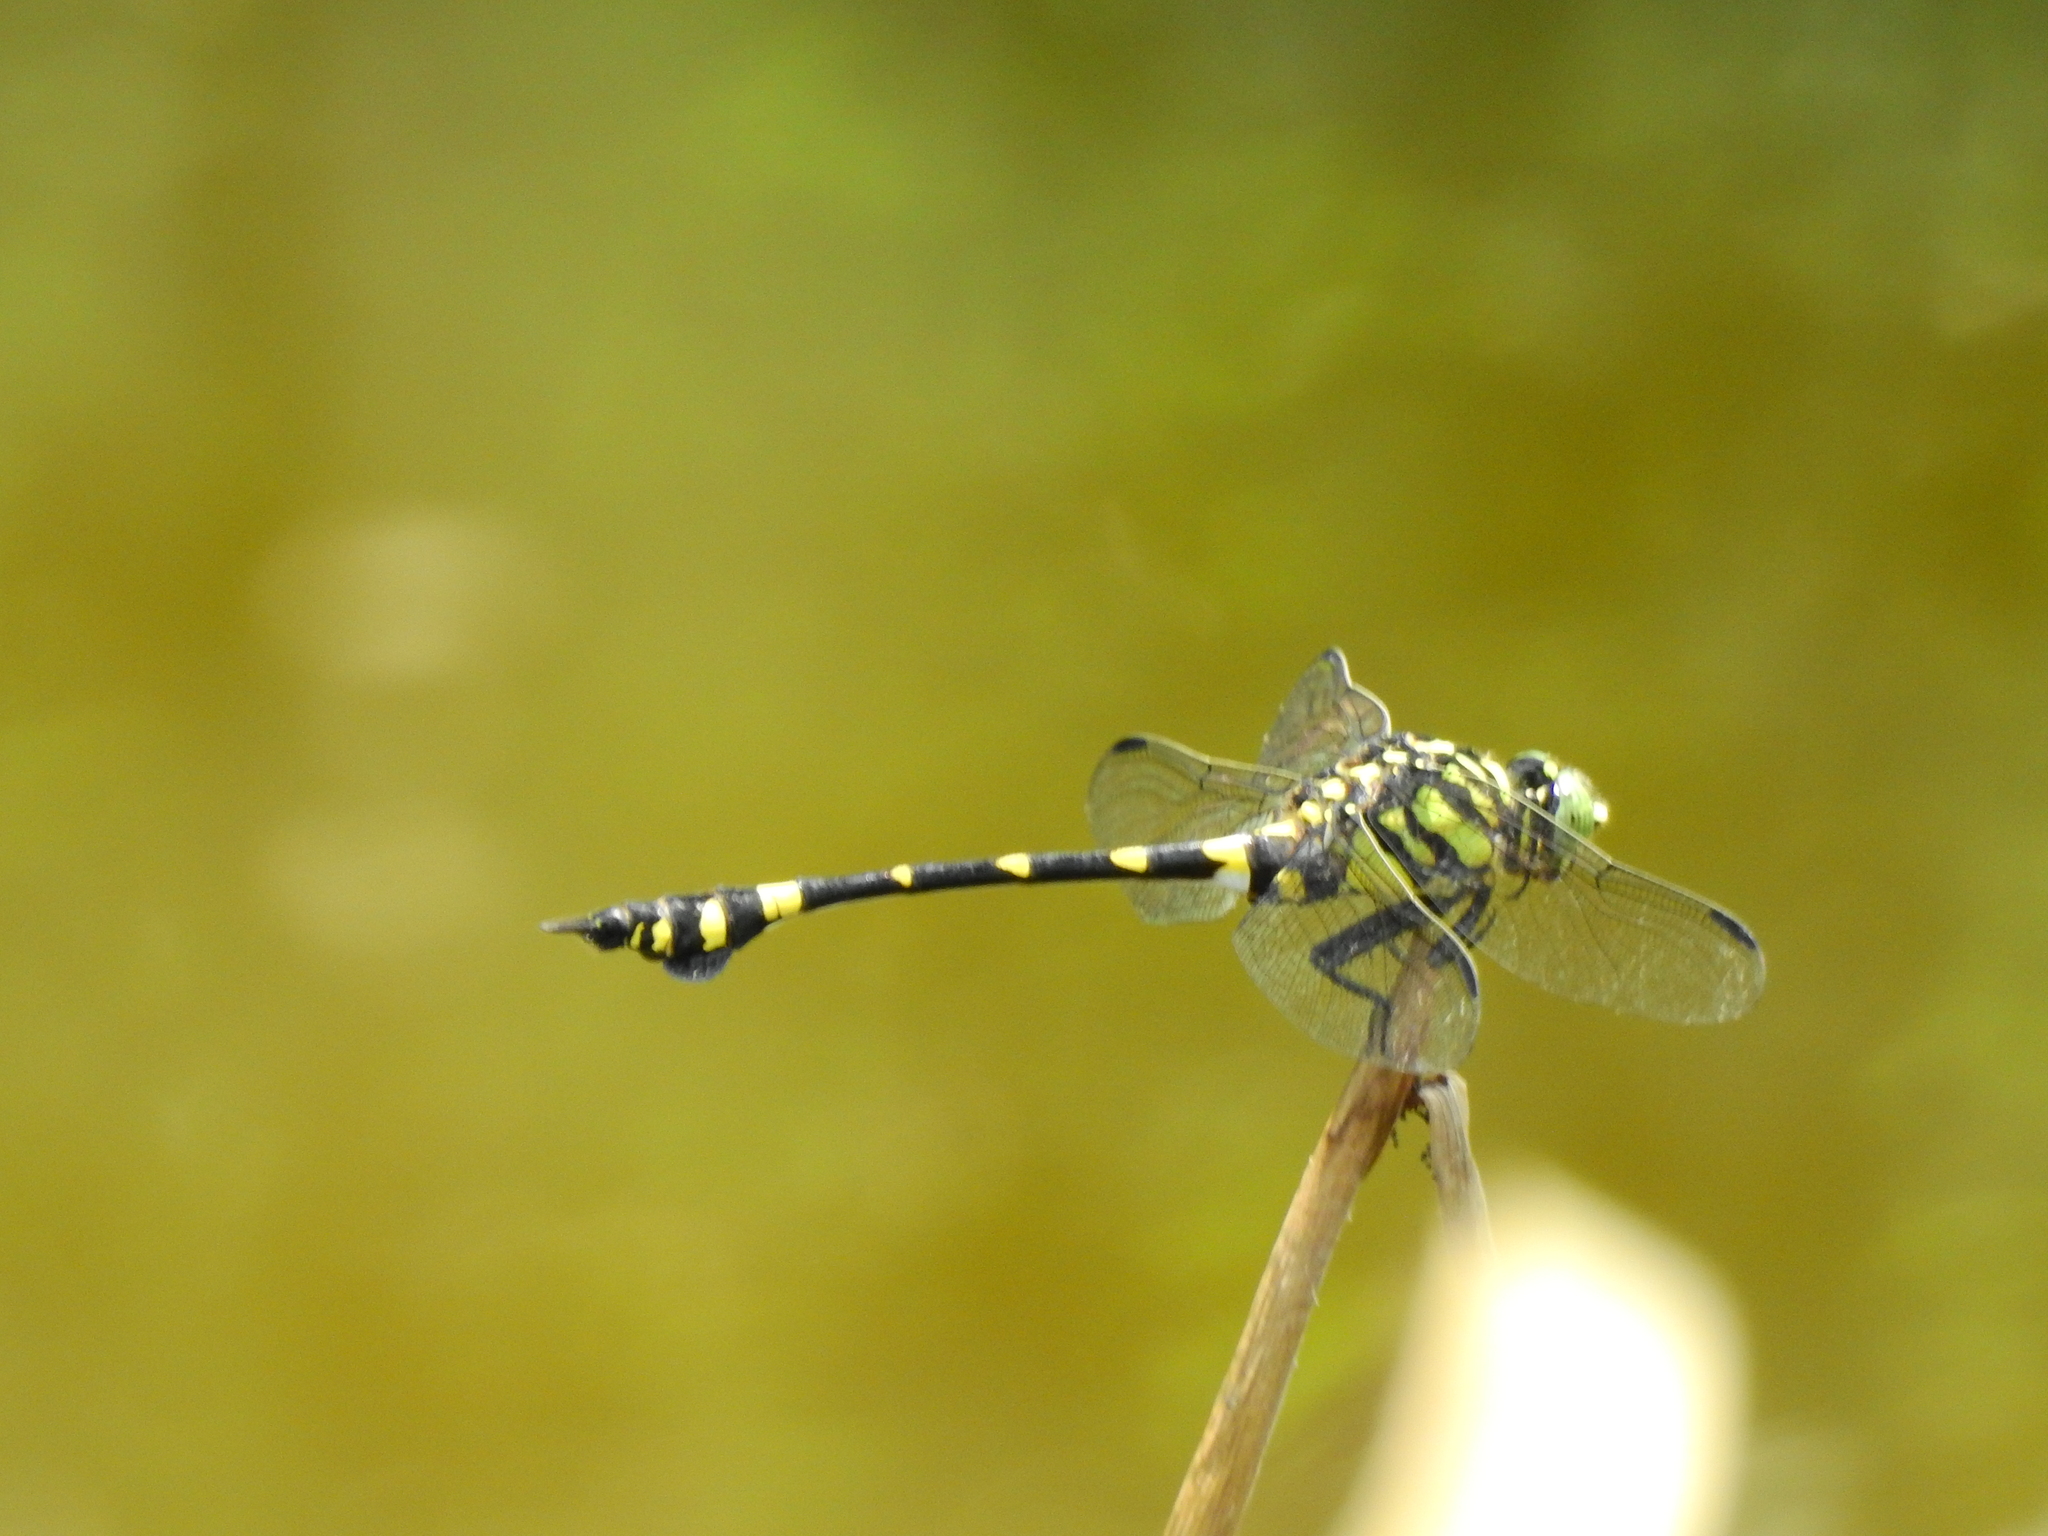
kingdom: Animalia
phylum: Arthropoda
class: Insecta
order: Odonata
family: Gomphidae
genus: Ictinogomphus
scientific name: Ictinogomphus rapax
